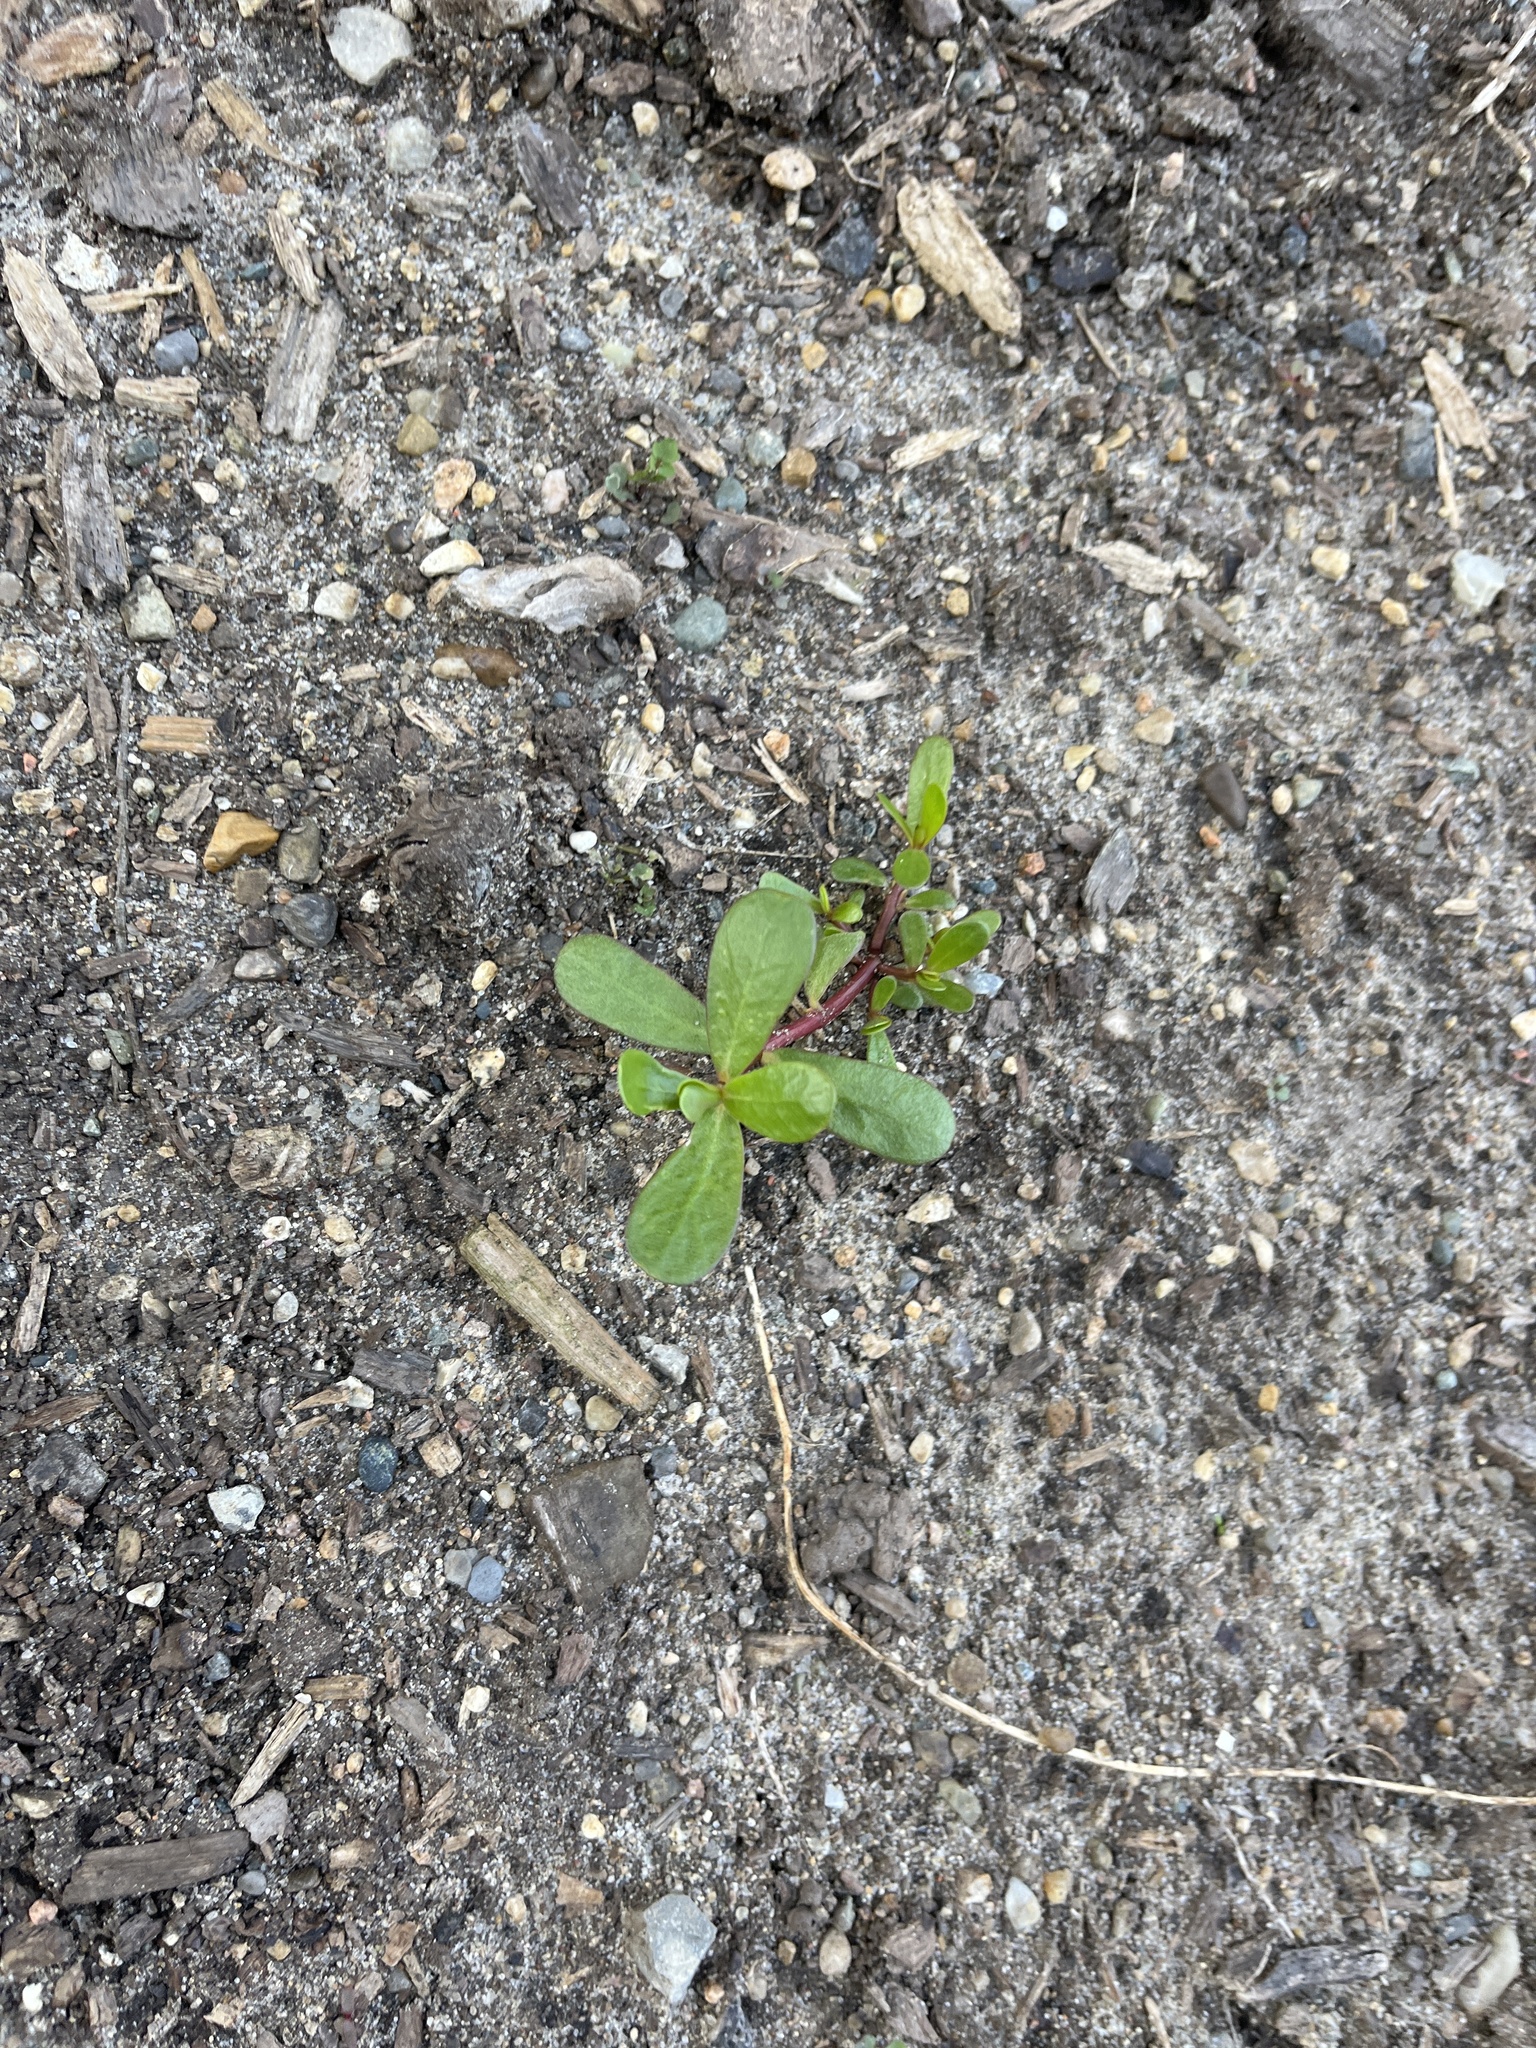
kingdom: Plantae
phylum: Tracheophyta
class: Magnoliopsida
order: Caryophyllales
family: Portulacaceae
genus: Portulaca
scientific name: Portulaca oleracea
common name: Common purslane
